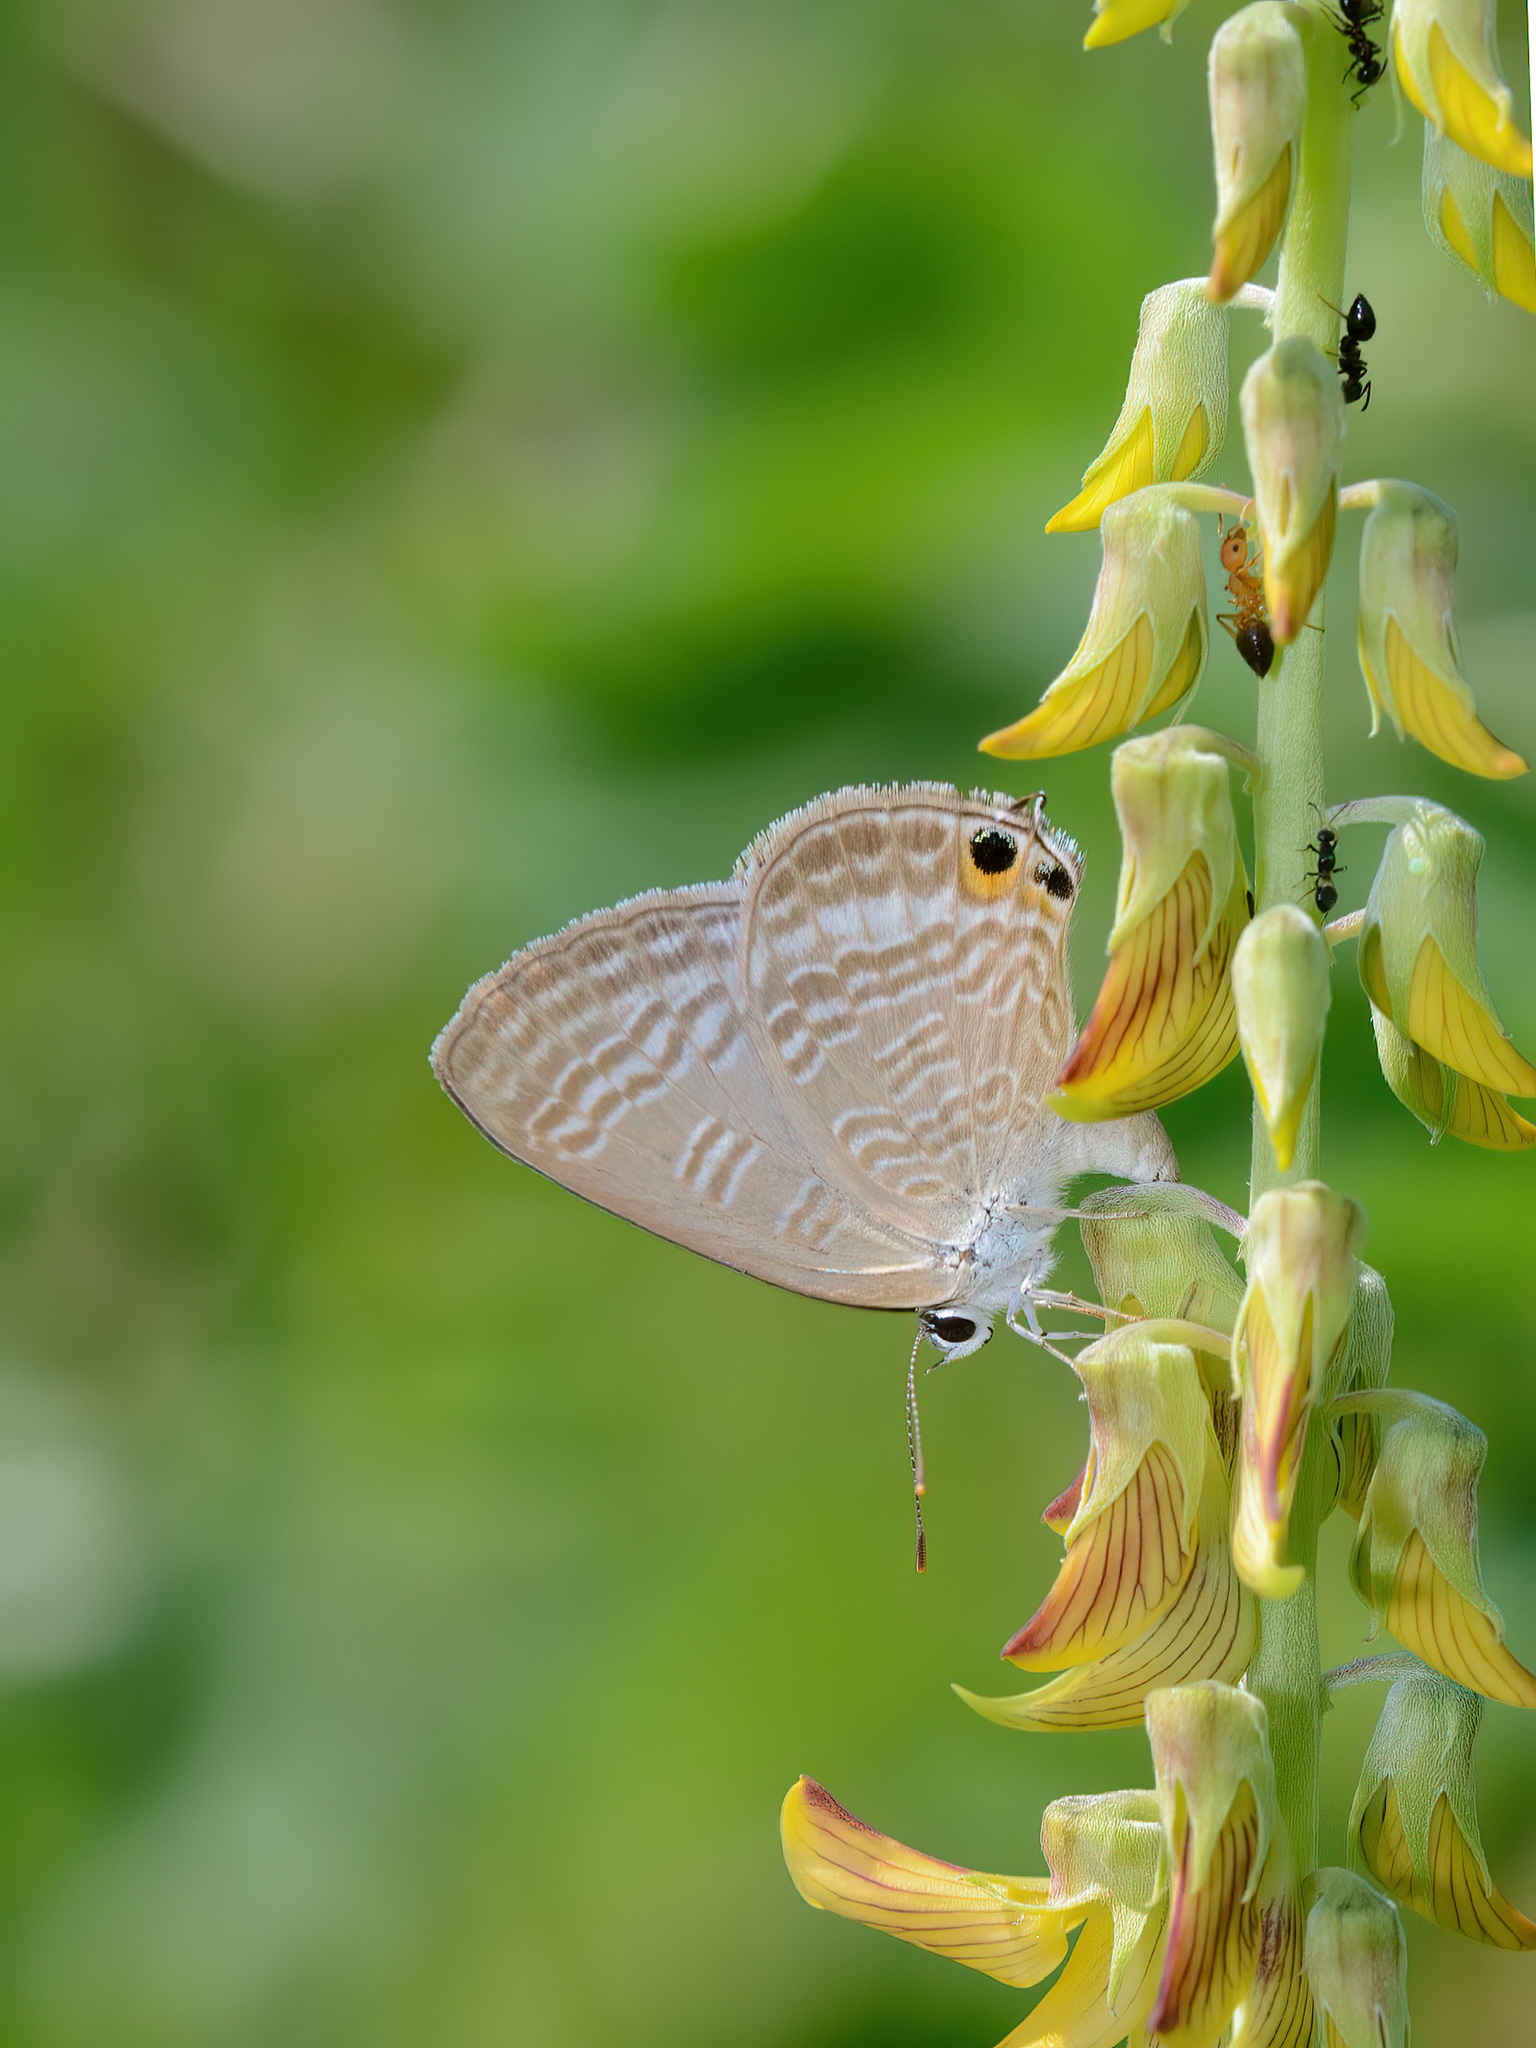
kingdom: Animalia
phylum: Arthropoda
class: Insecta
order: Lepidoptera
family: Lycaenidae
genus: Lampides
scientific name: Lampides boeticus
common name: Long-tailed blue
